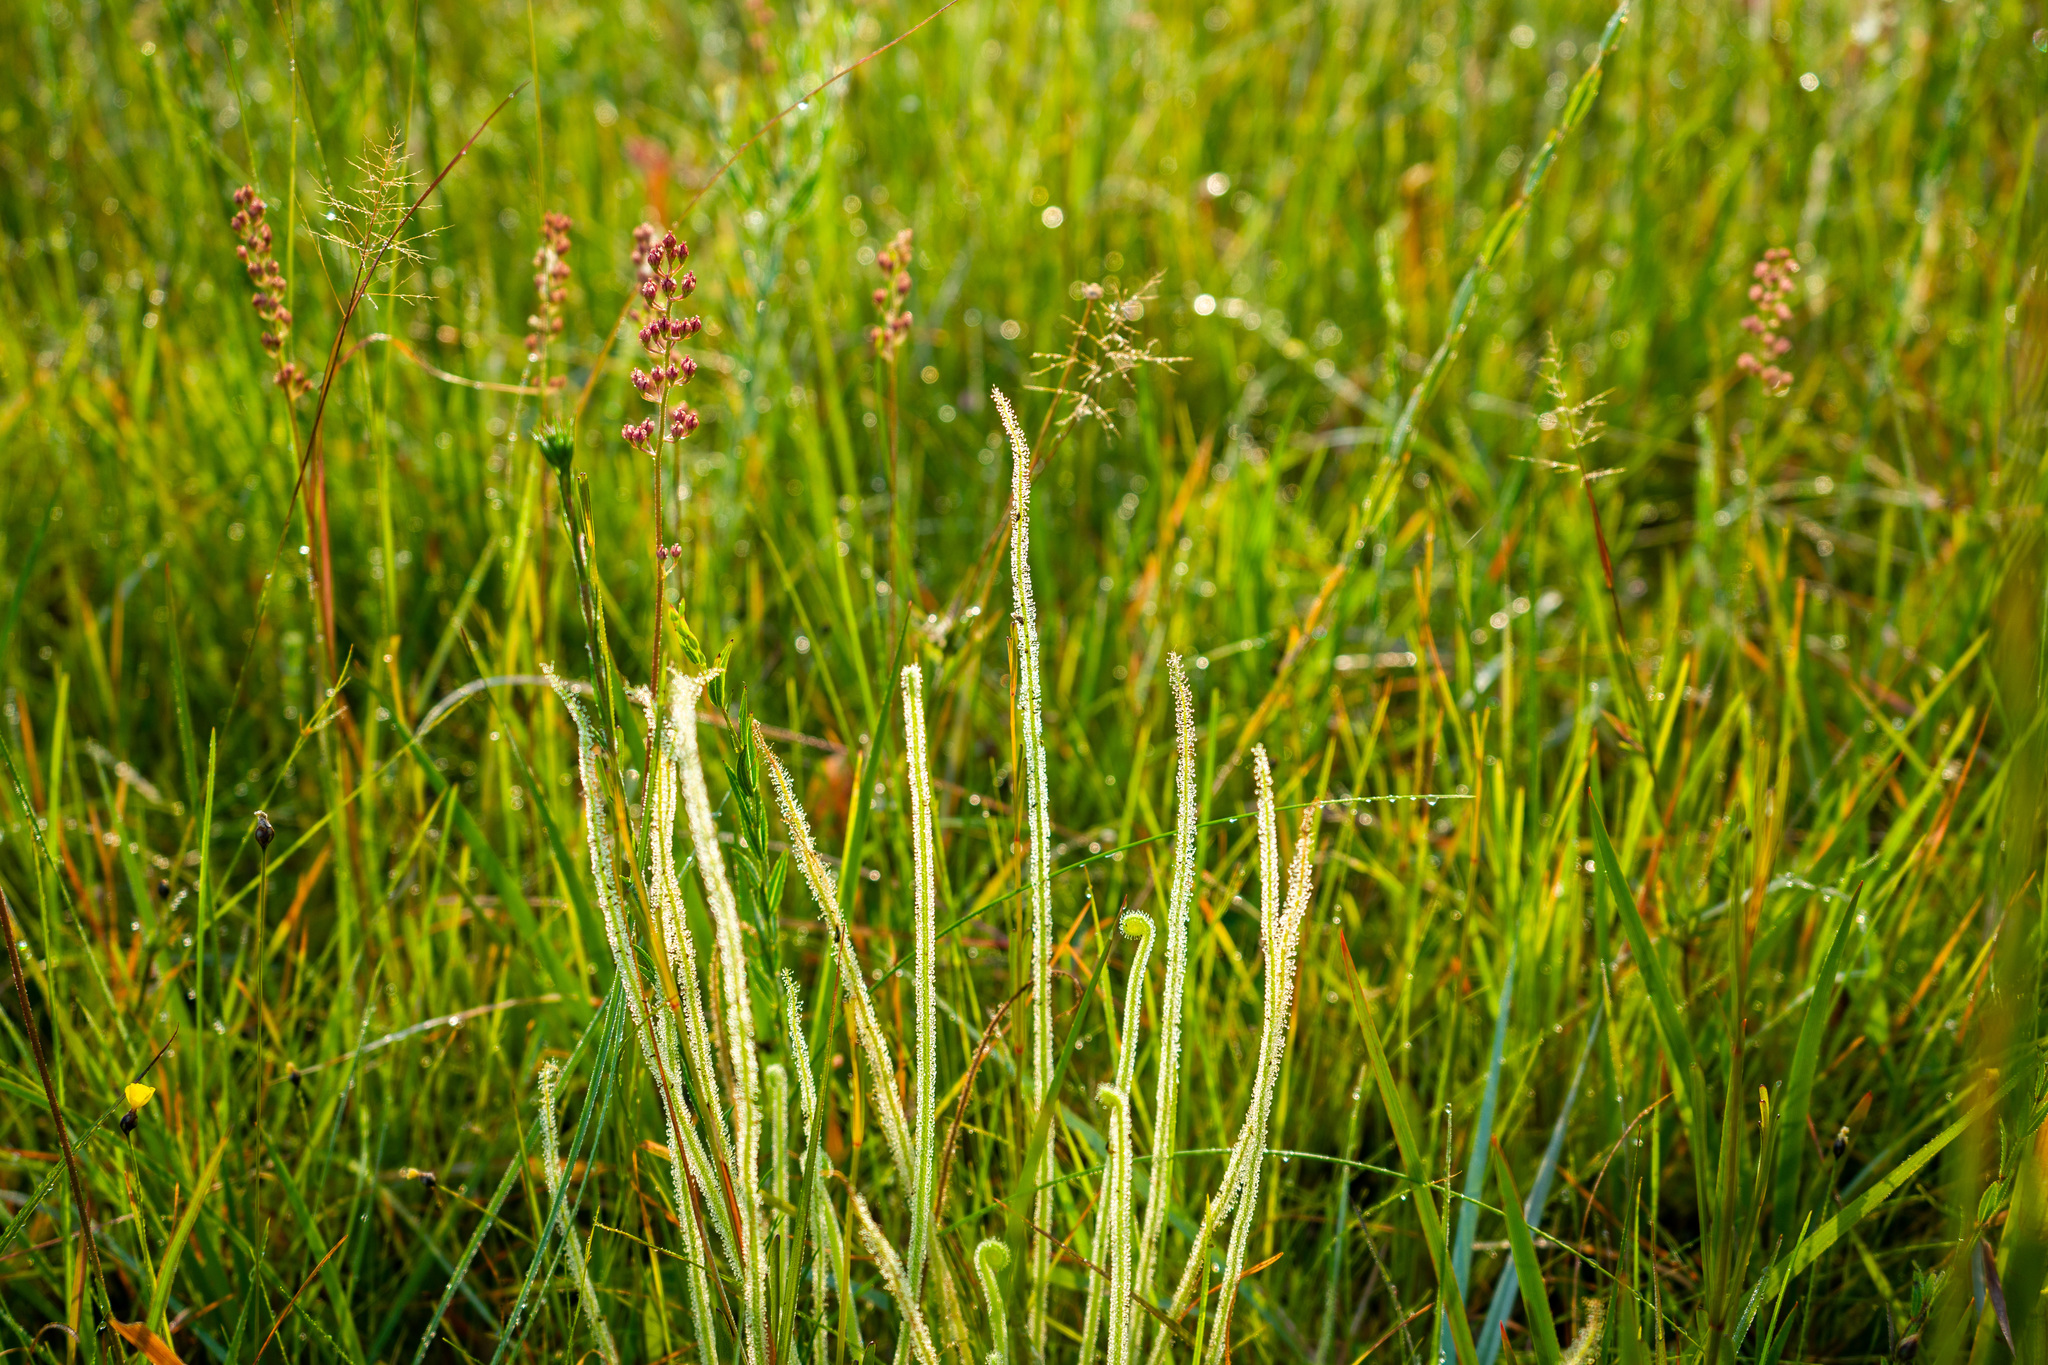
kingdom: Plantae
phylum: Tracheophyta
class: Magnoliopsida
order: Caryophyllales
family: Droseraceae
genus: Drosera
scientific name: Drosera filiformis
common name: Dew-thread
